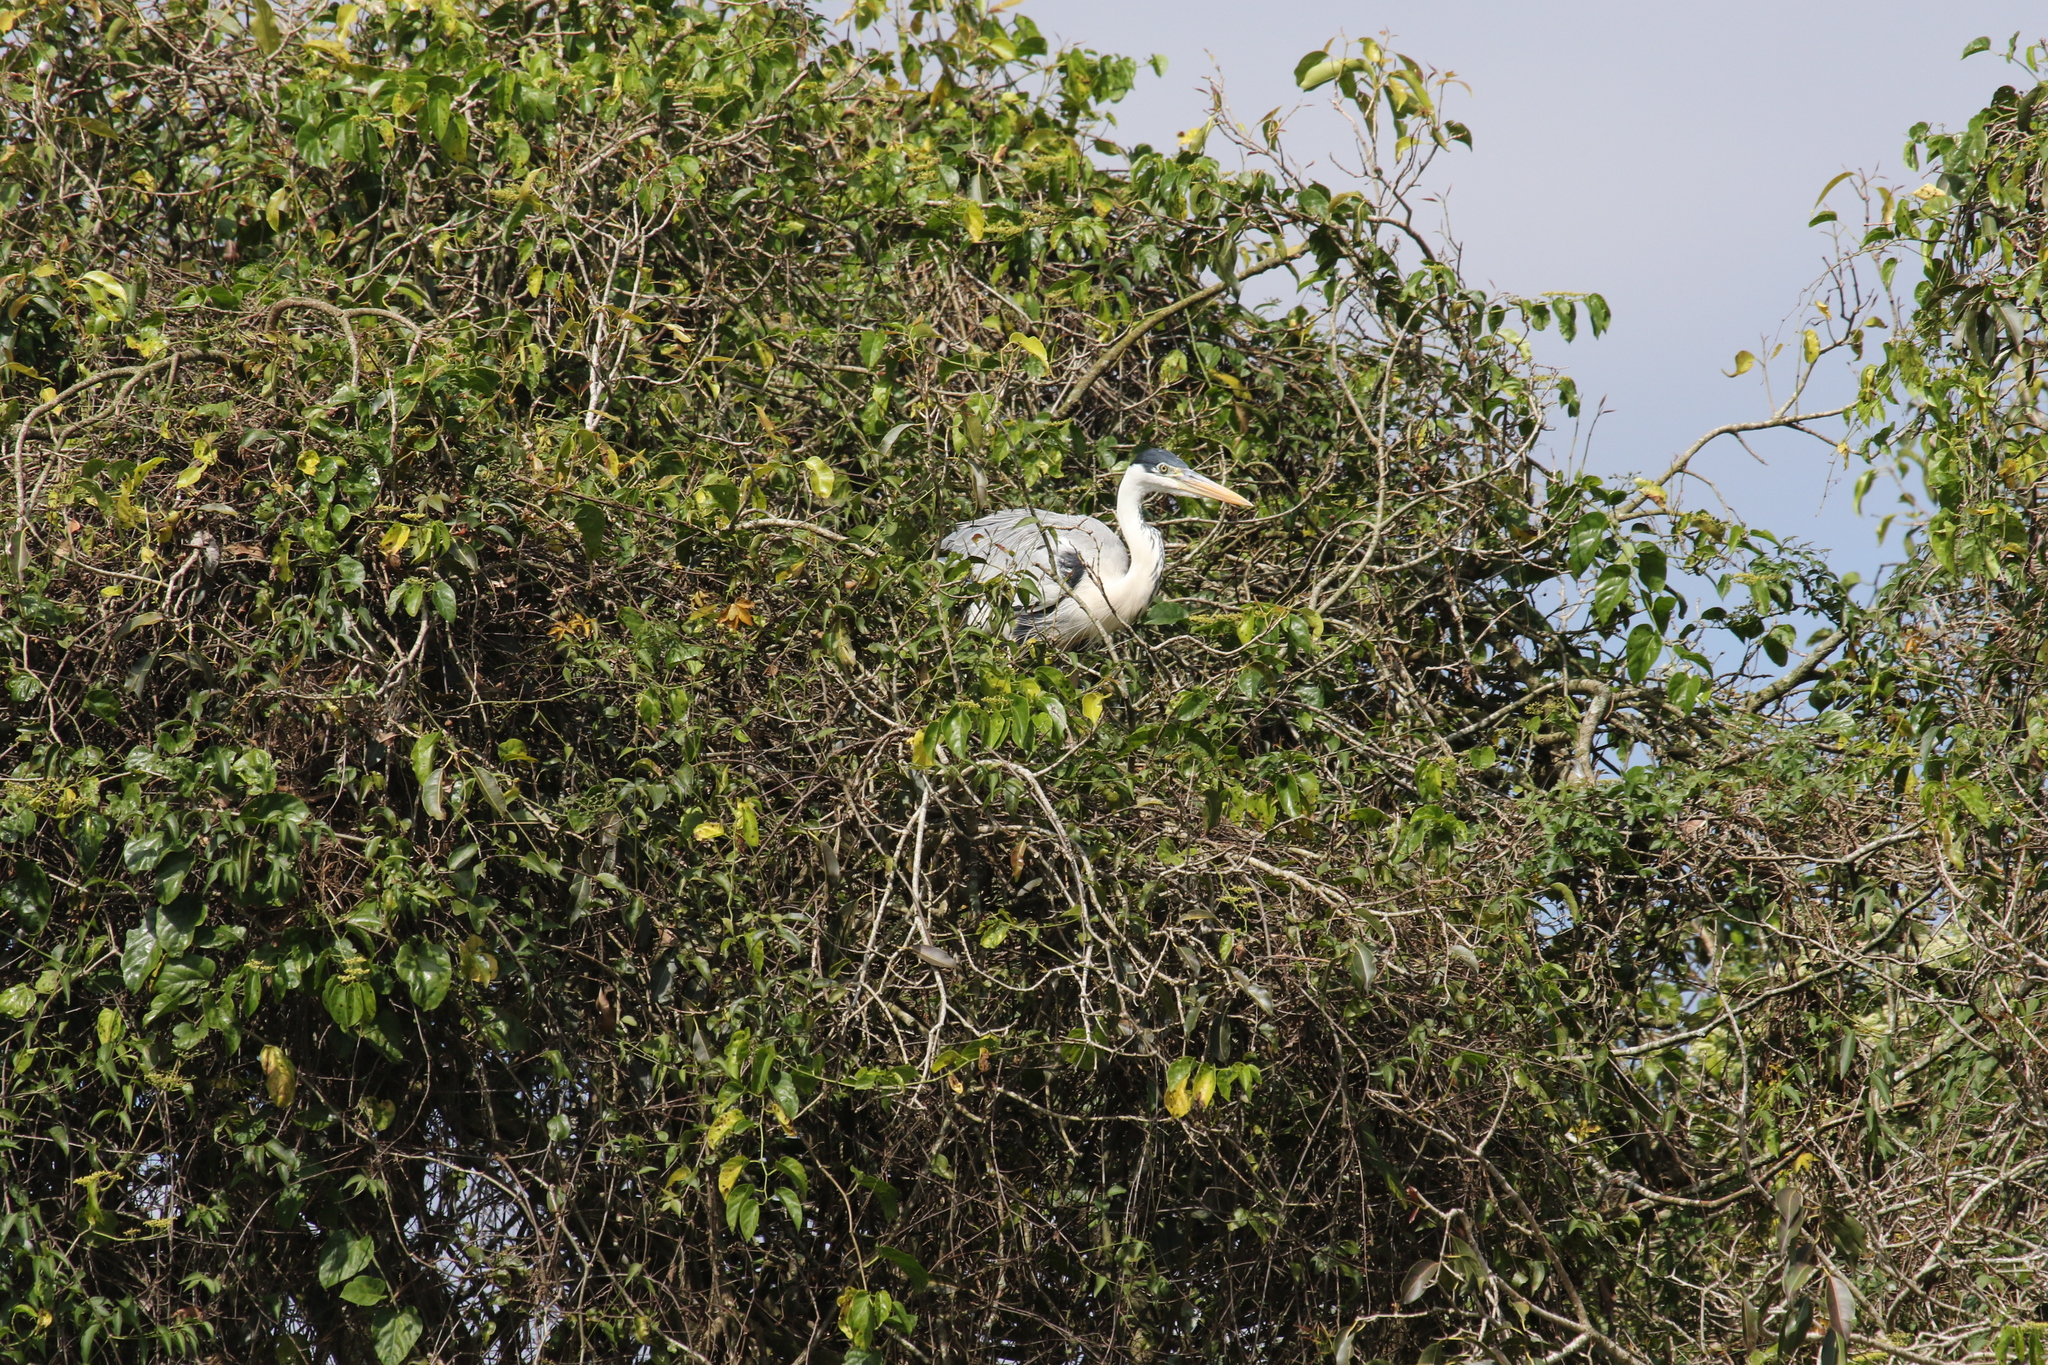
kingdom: Animalia
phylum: Chordata
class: Aves
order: Pelecaniformes
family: Ardeidae
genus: Ardea
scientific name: Ardea cocoi
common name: Cocoi heron
